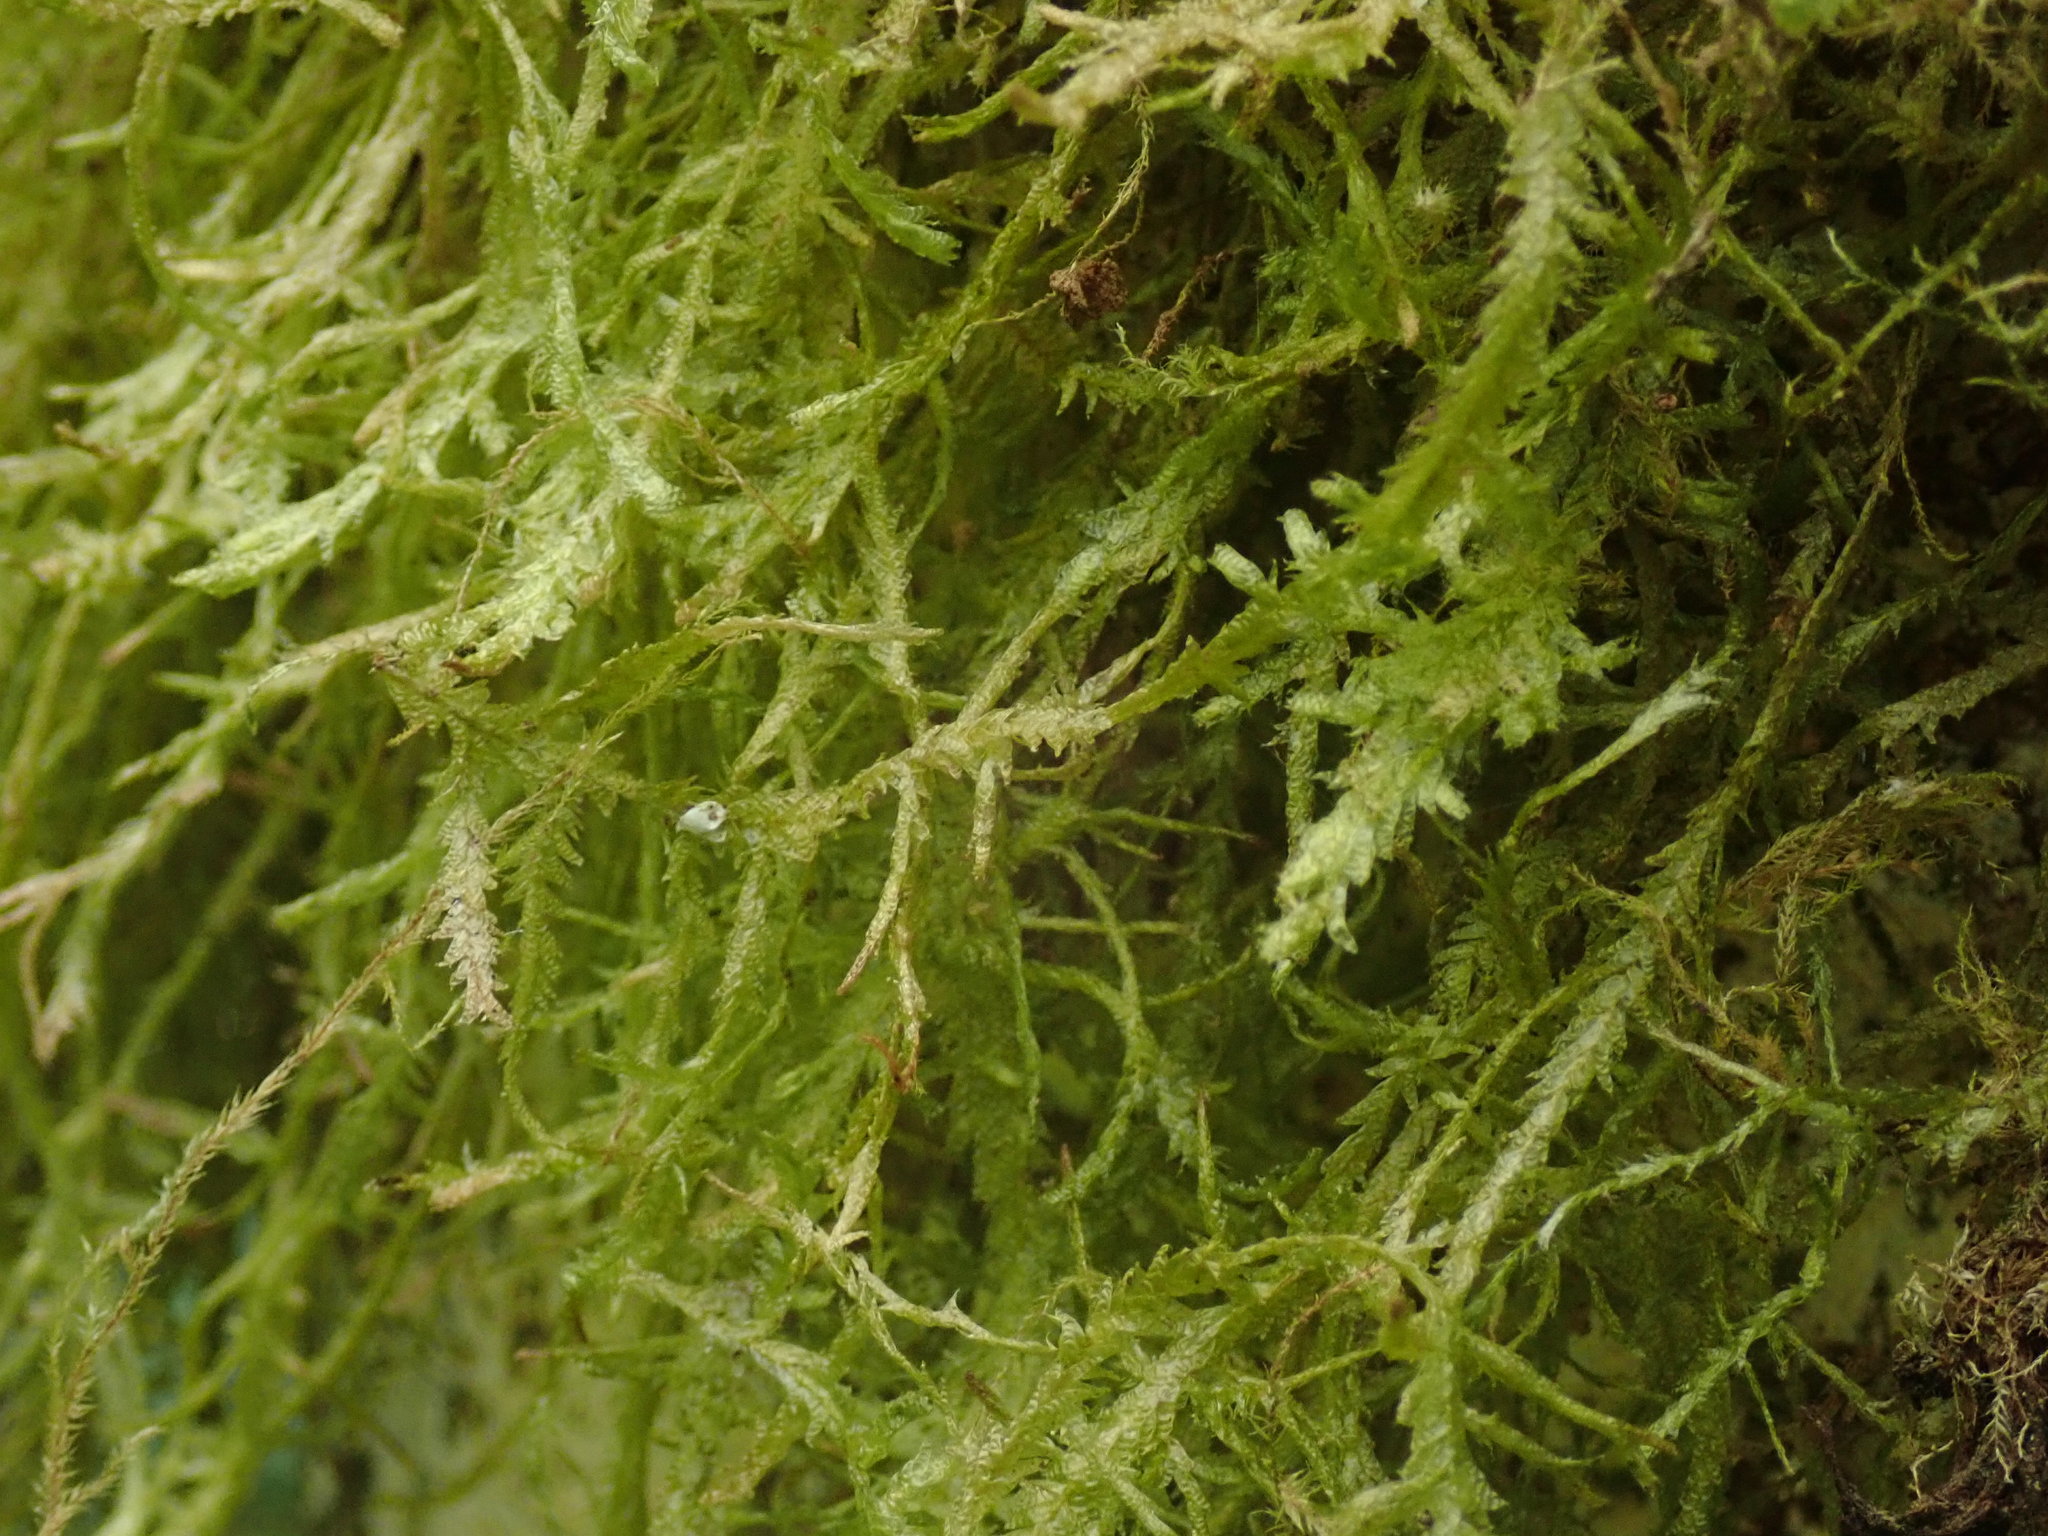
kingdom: Plantae
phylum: Bryophyta
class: Bryopsida
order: Hypnales
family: Neckeraceae
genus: Neckera
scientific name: Neckera douglasii
